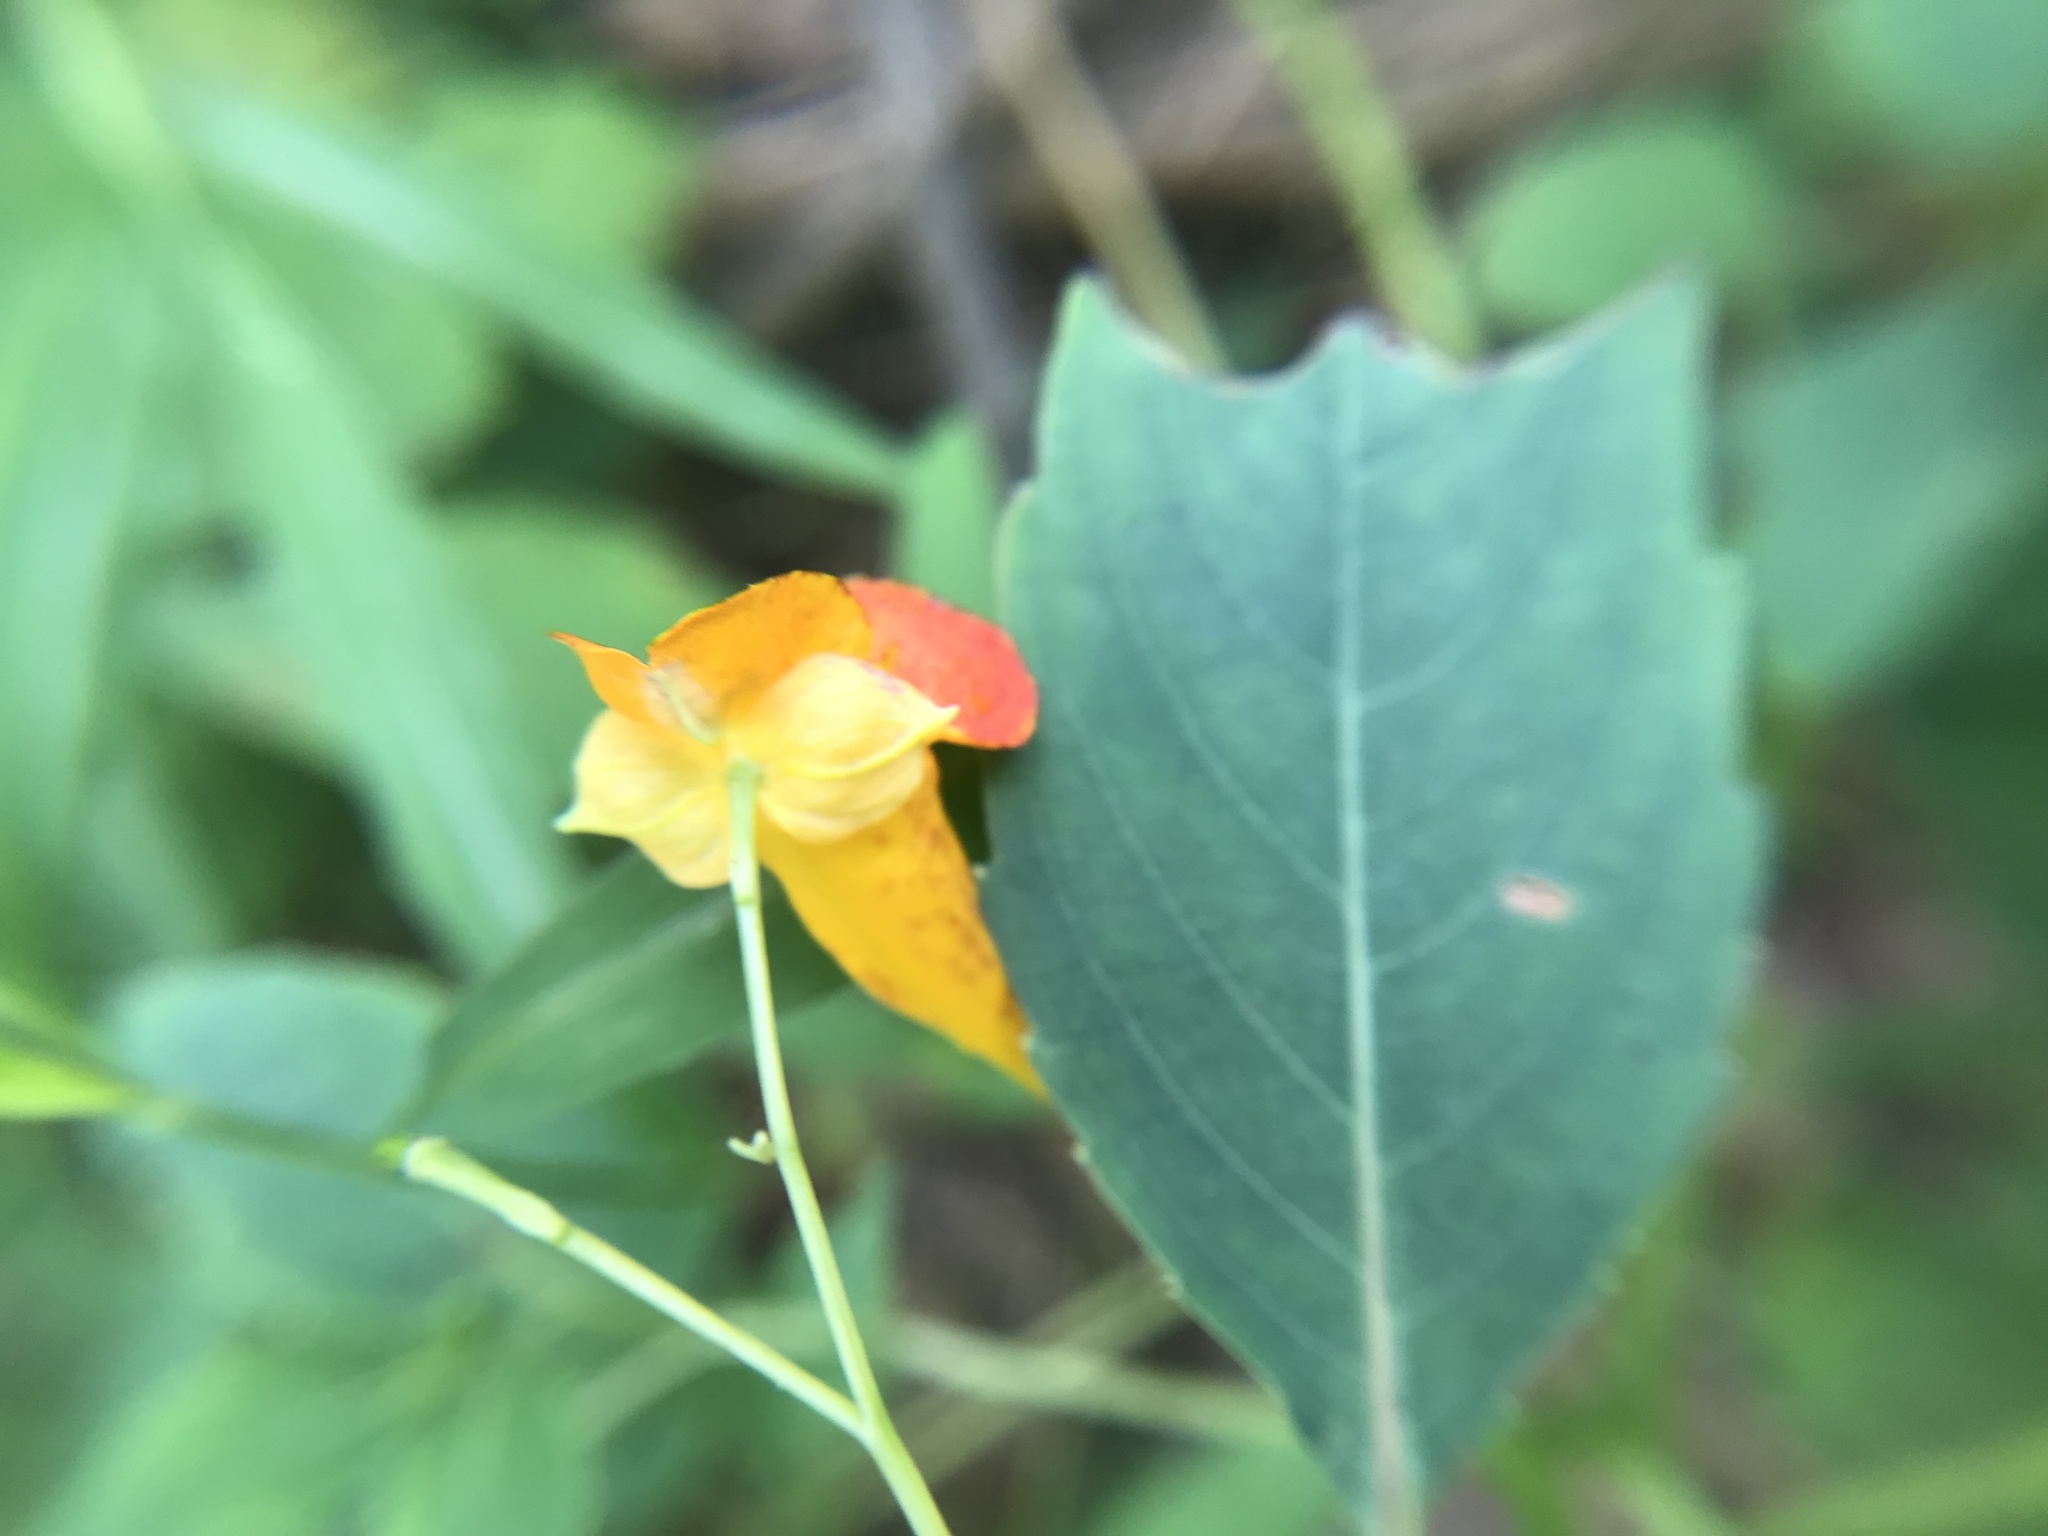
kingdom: Plantae
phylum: Tracheophyta
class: Magnoliopsida
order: Ericales
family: Balsaminaceae
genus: Impatiens
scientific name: Impatiens capensis
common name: Orange balsam
